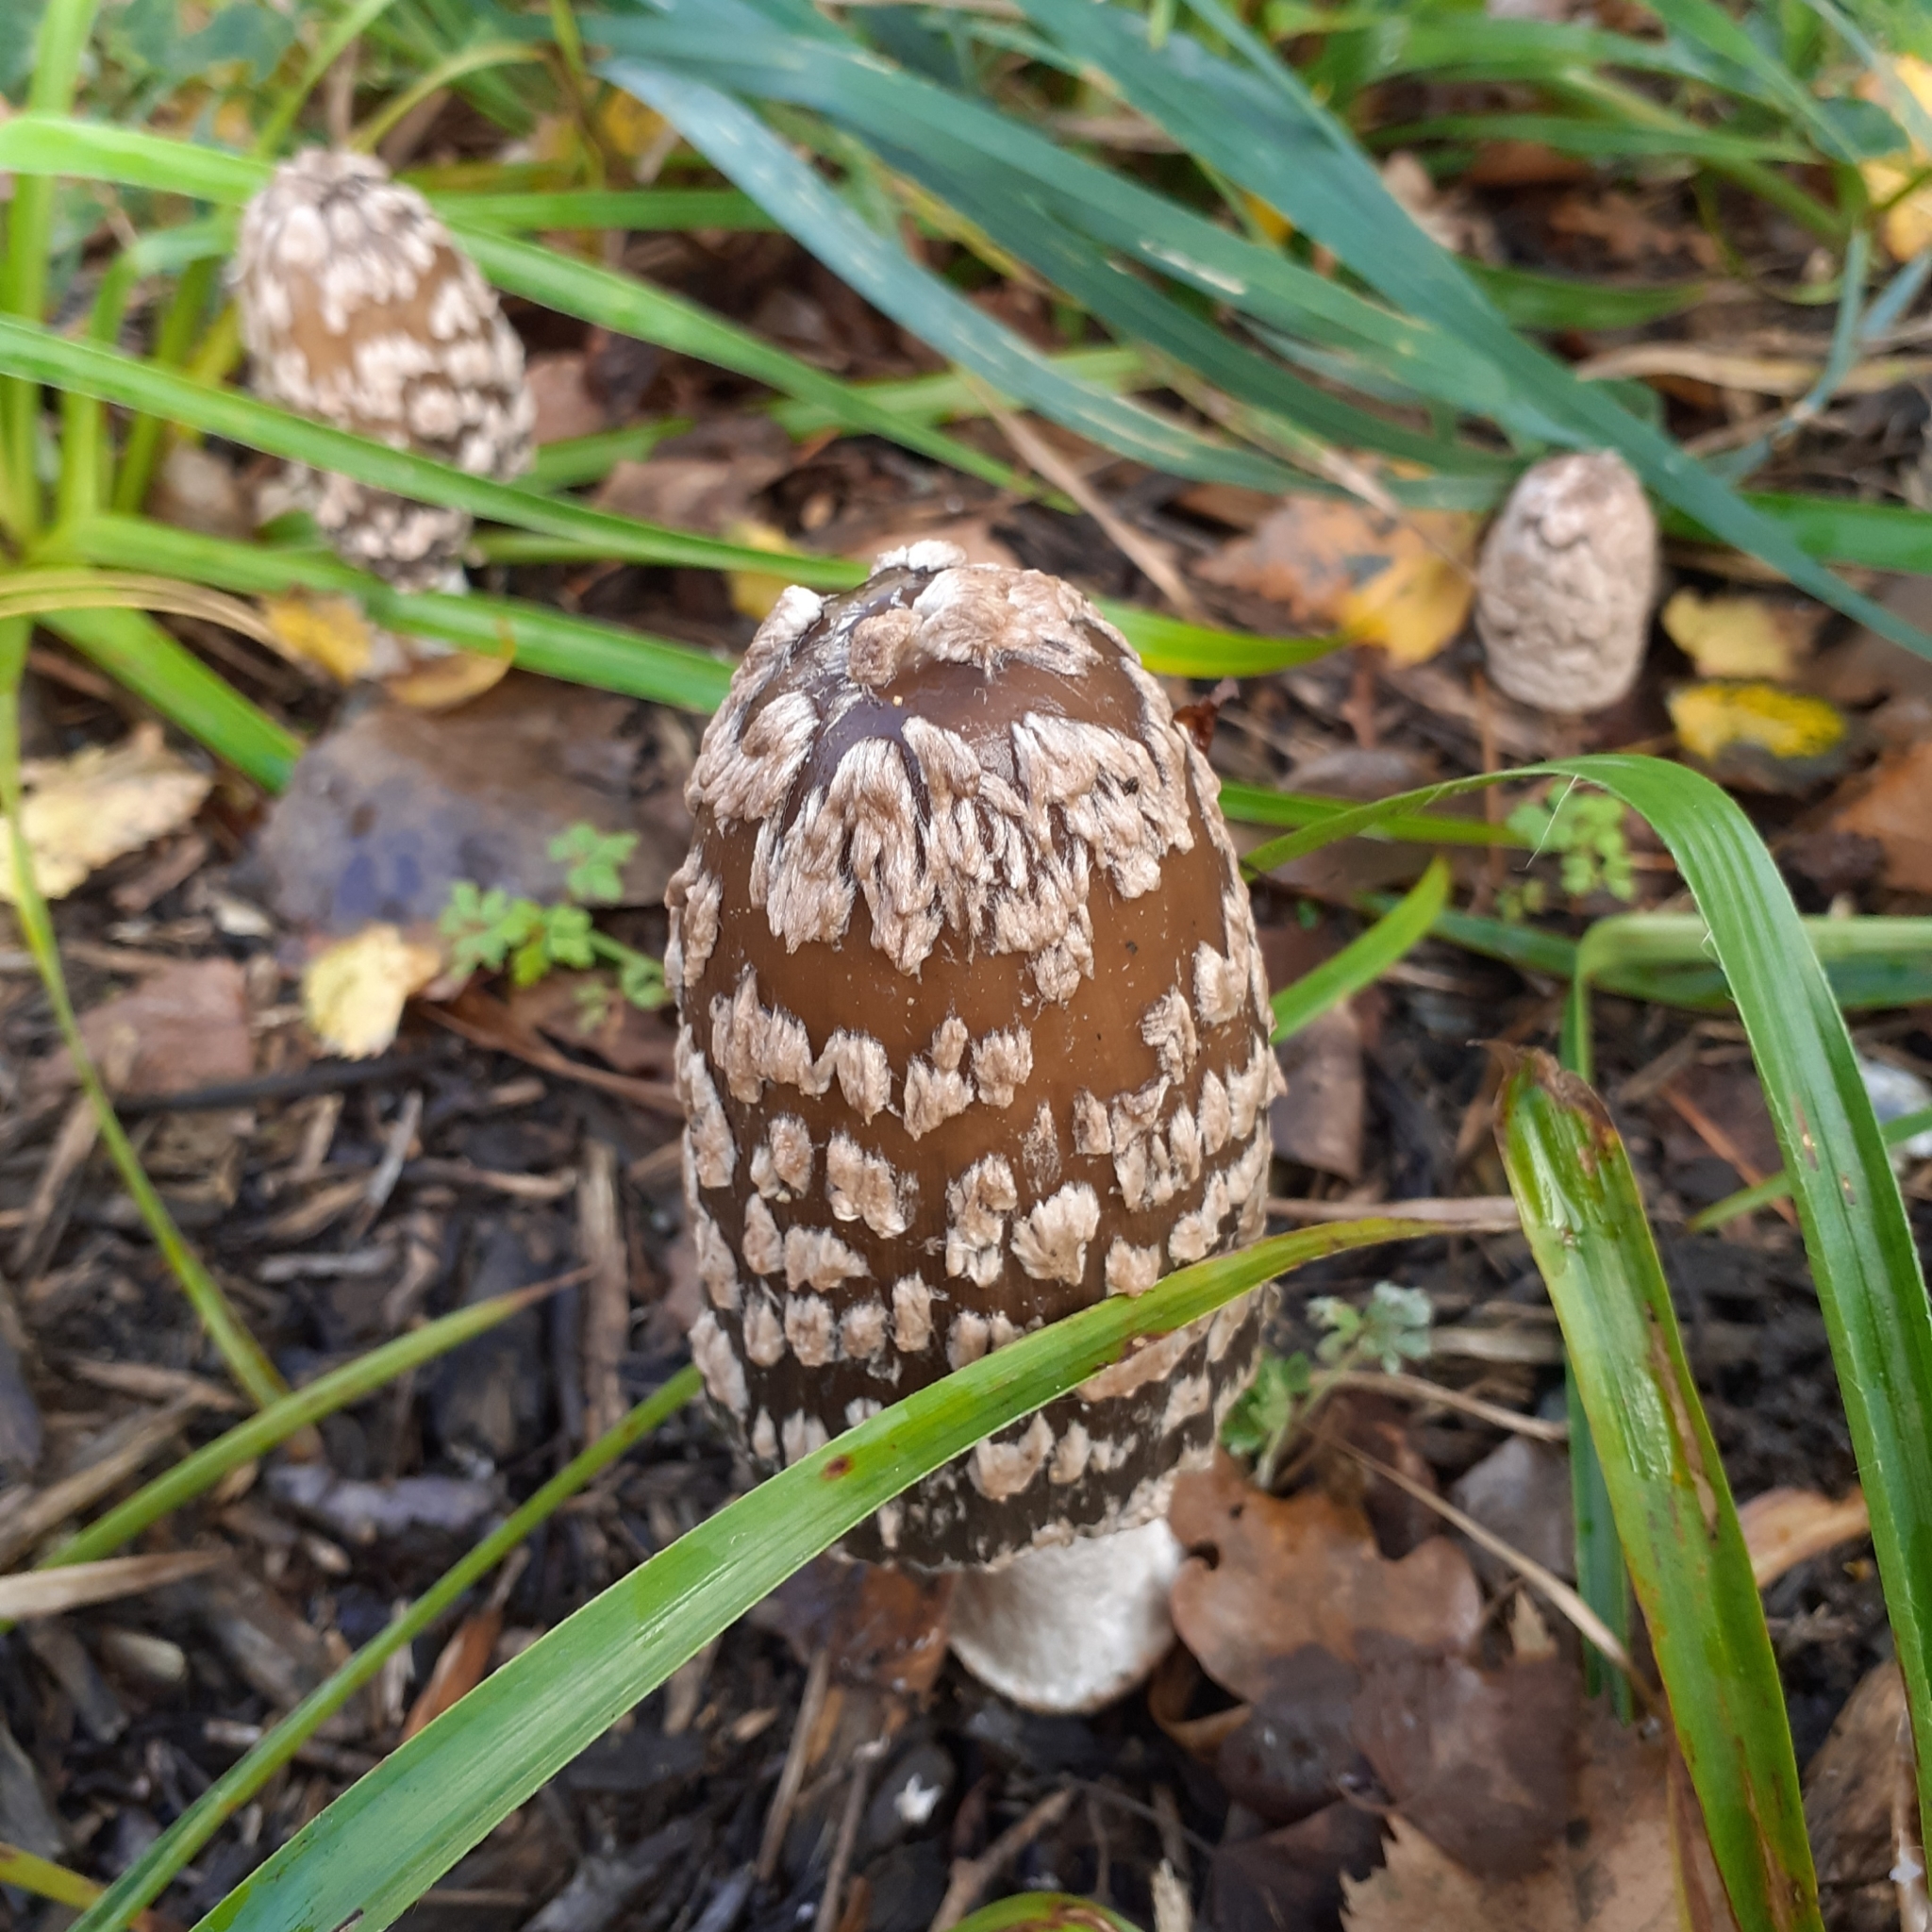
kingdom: Fungi
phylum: Basidiomycota
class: Agaricomycetes
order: Agaricales
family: Psathyrellaceae
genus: Coprinopsis
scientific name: Coprinopsis picacea
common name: Magpie inkcap
